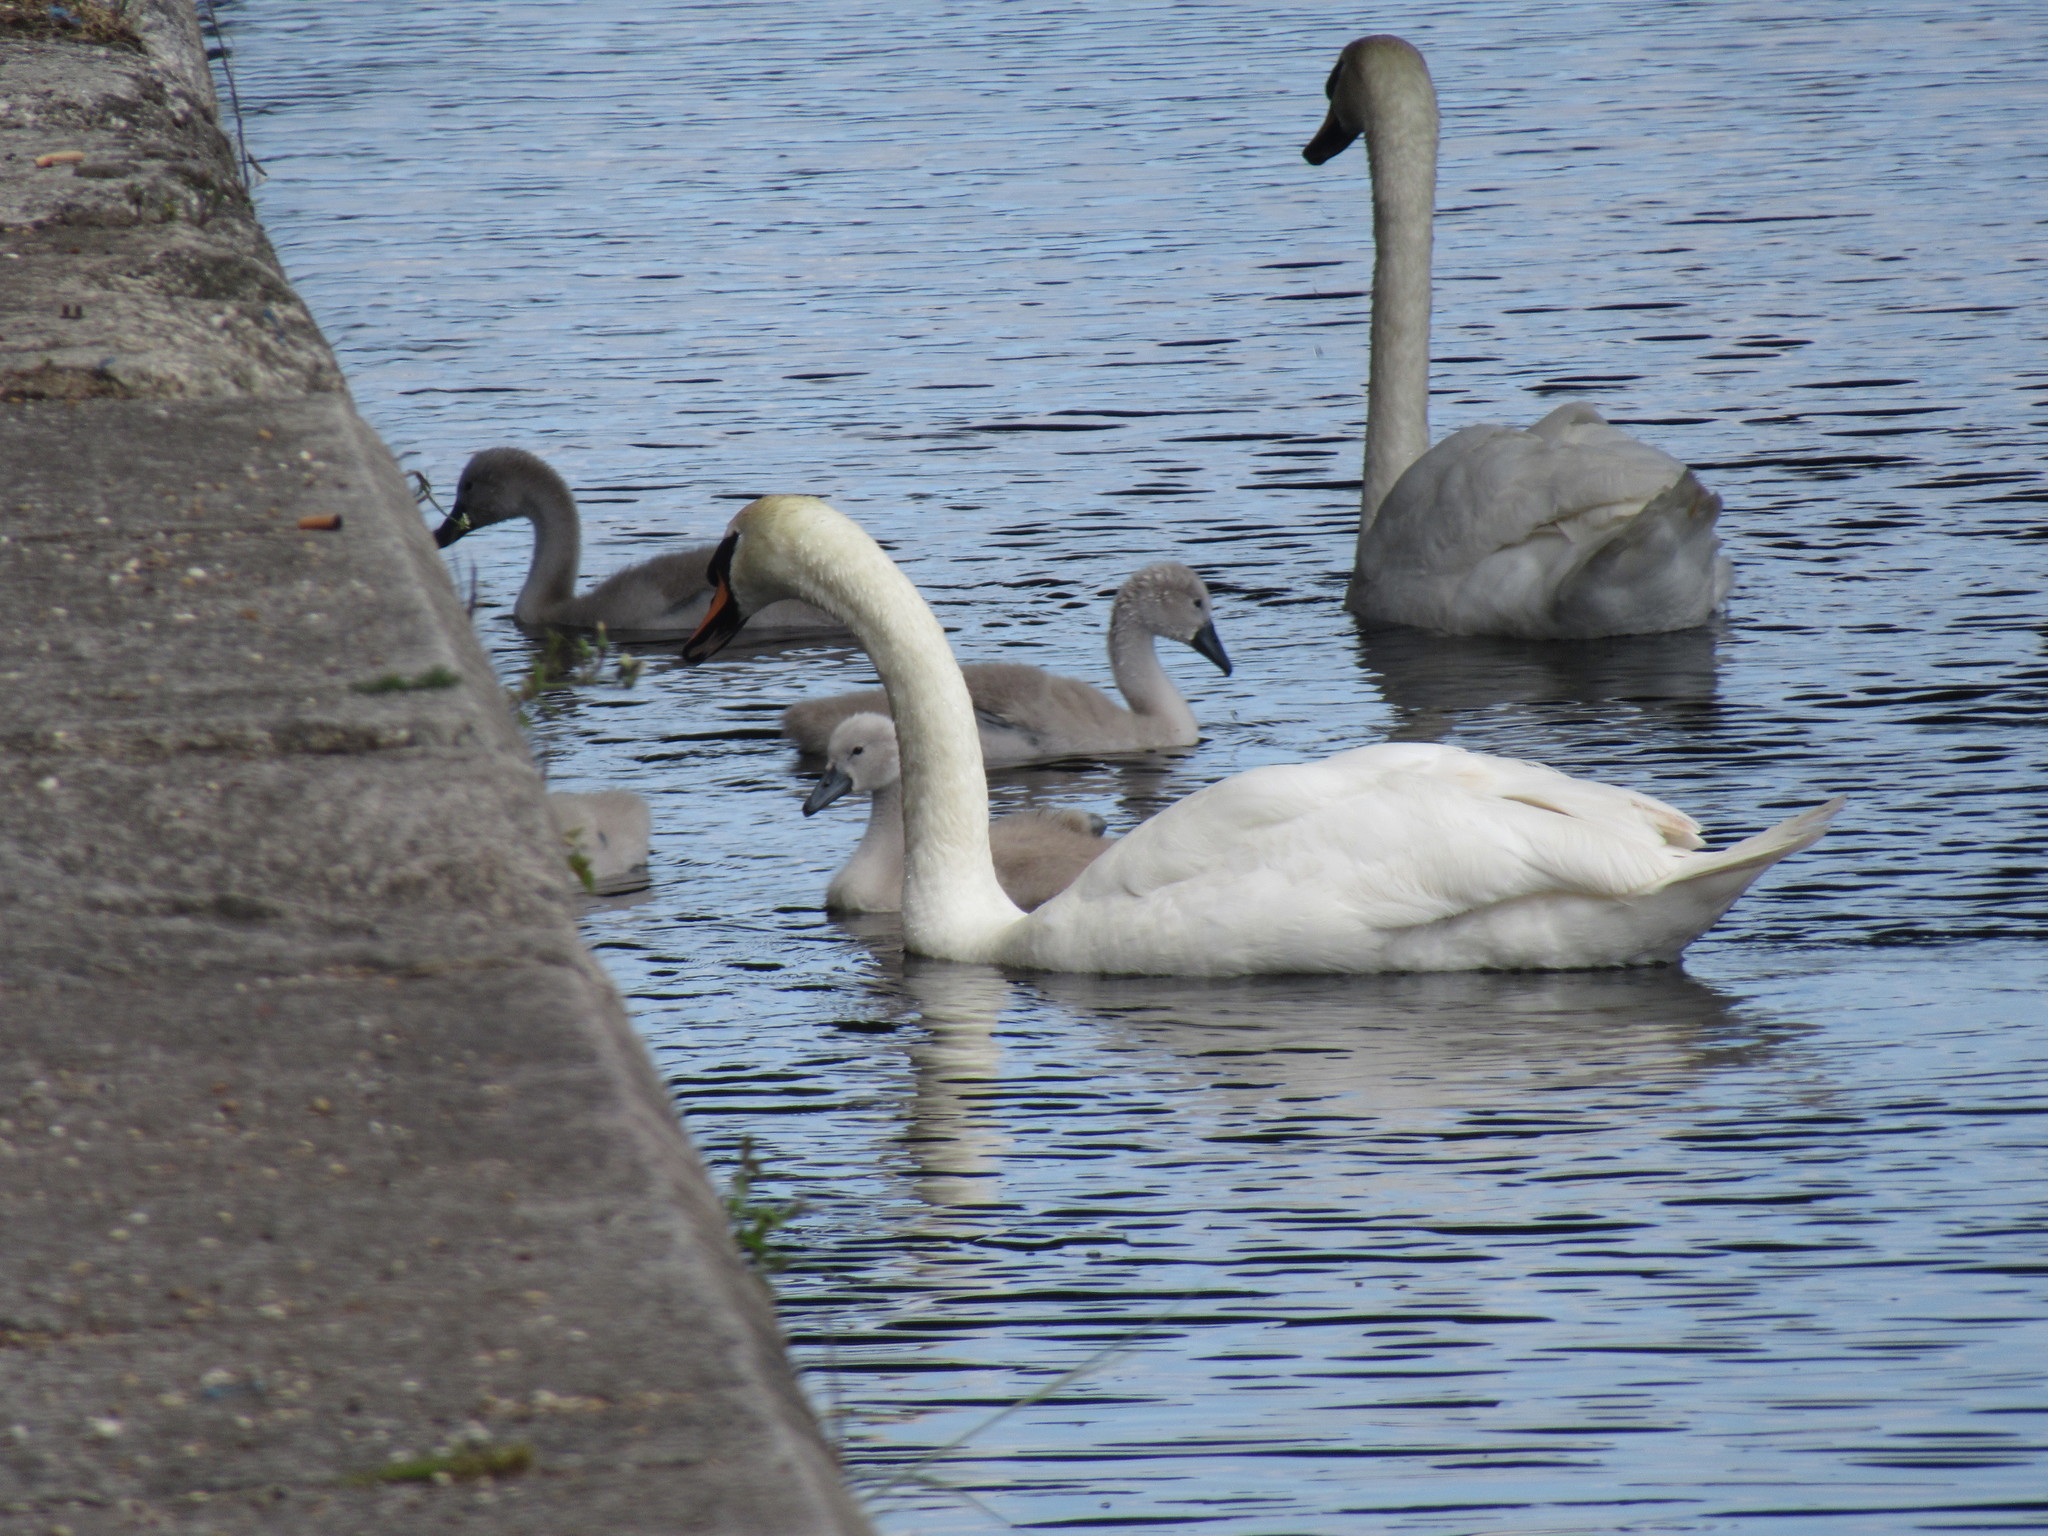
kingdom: Animalia
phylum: Chordata
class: Aves
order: Anseriformes
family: Anatidae
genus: Cygnus
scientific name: Cygnus olor
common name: Mute swan
